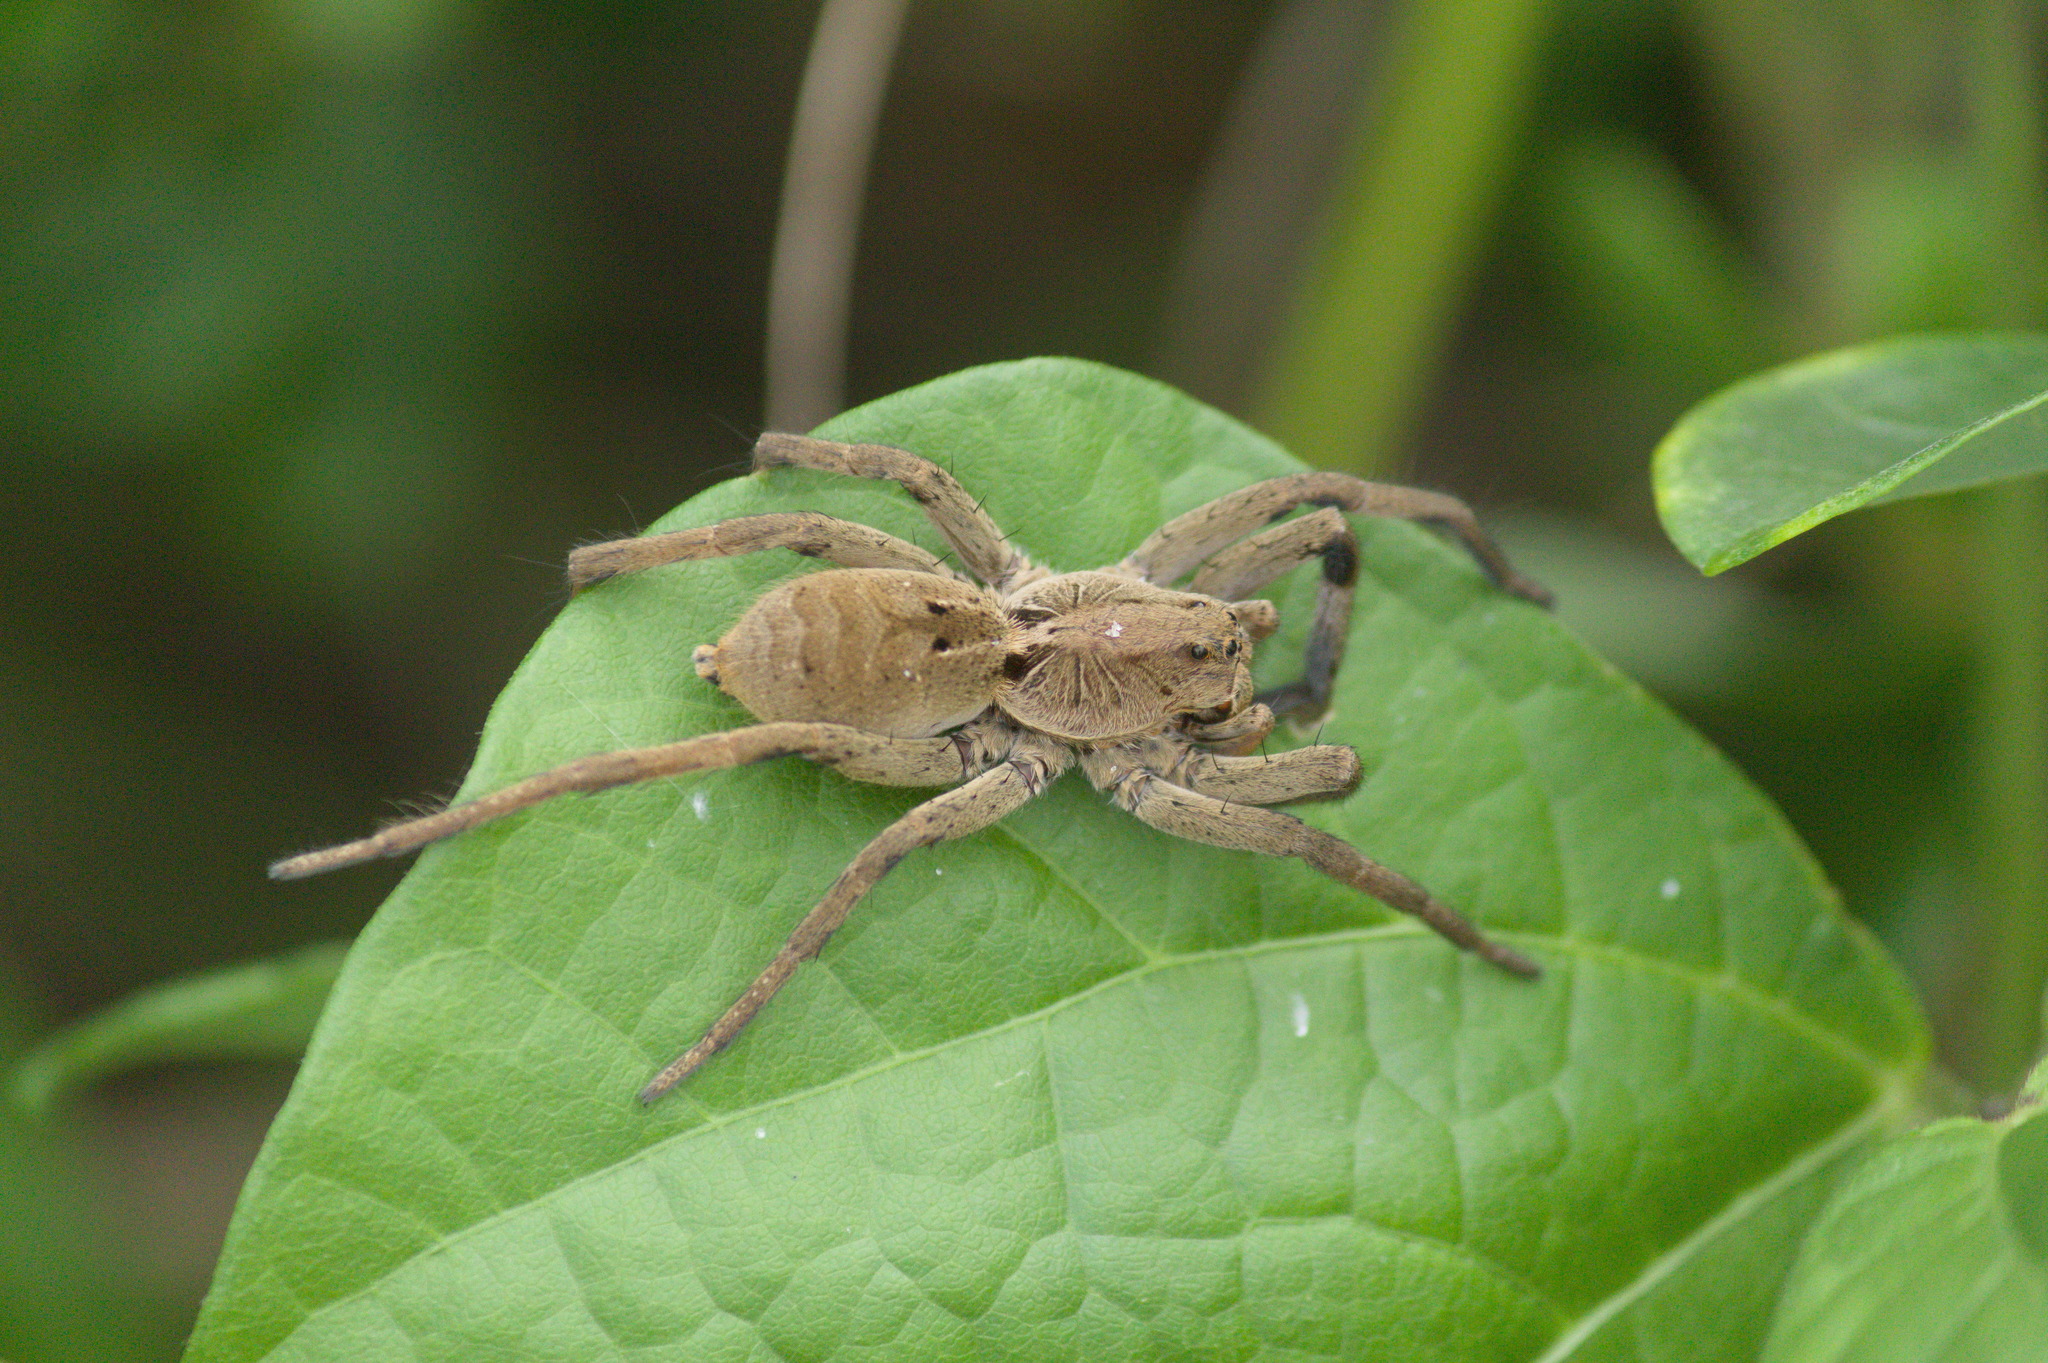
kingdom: Animalia
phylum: Arthropoda
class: Arachnida
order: Araneae
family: Lycosidae
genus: Lycosa
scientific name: Lycosa erythrognatha
